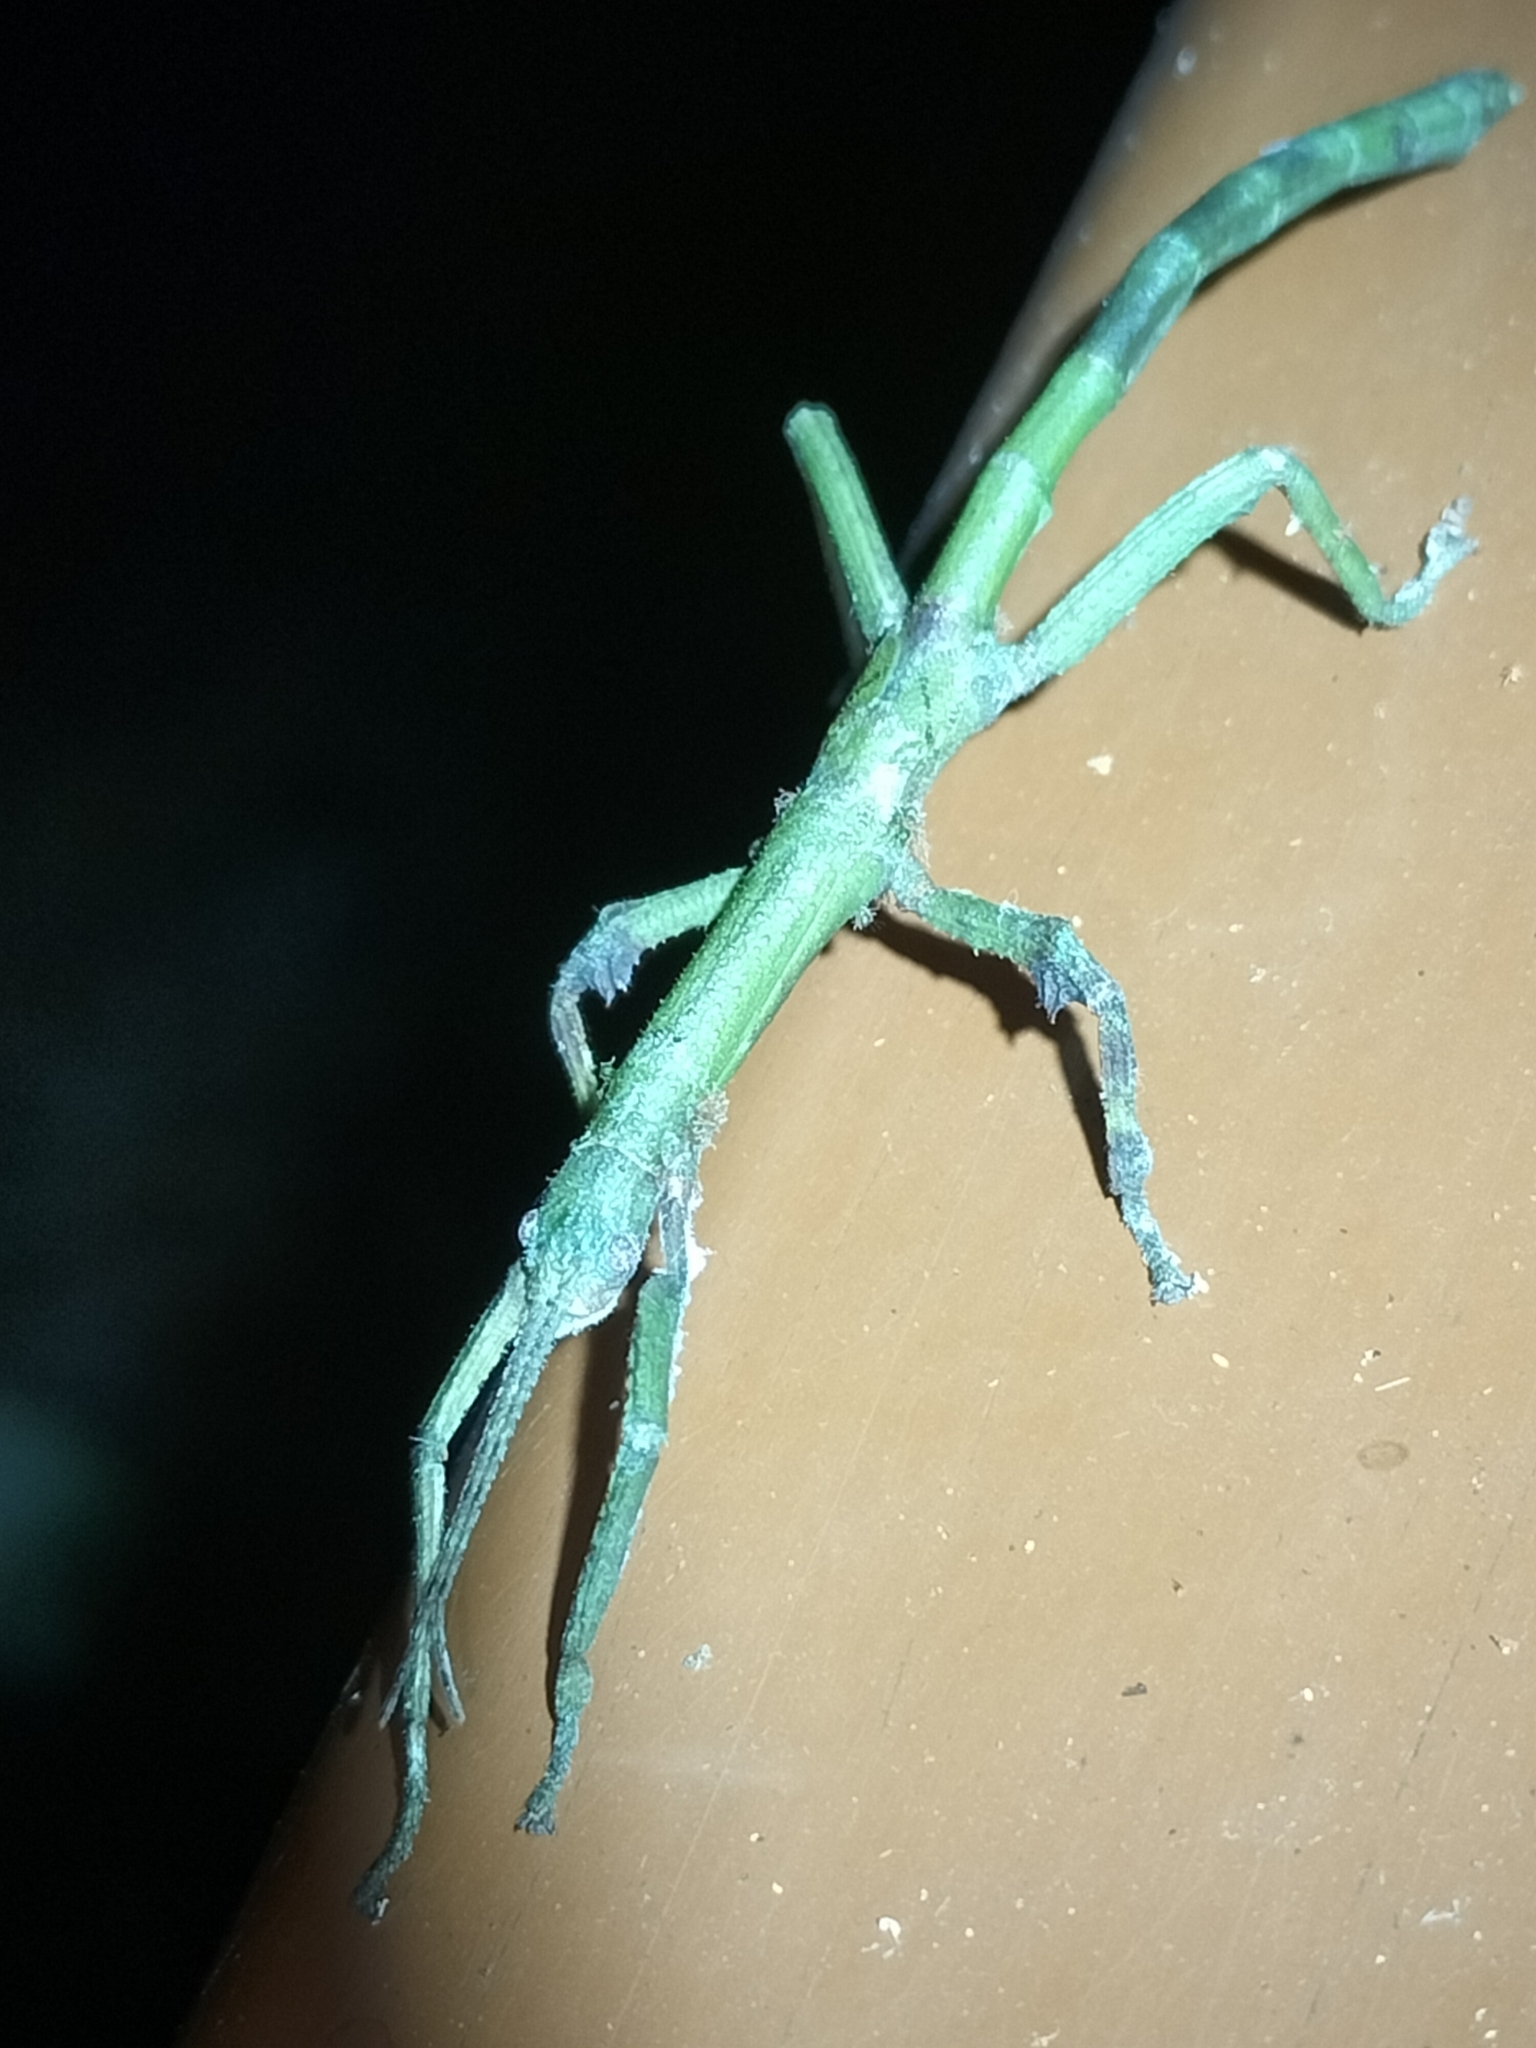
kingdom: Animalia
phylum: Arthropoda
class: Insecta
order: Phasmida
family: Phasmatidae
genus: Cigarrophasma
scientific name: Cigarrophasma tessellatum
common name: Cigar stick insect
